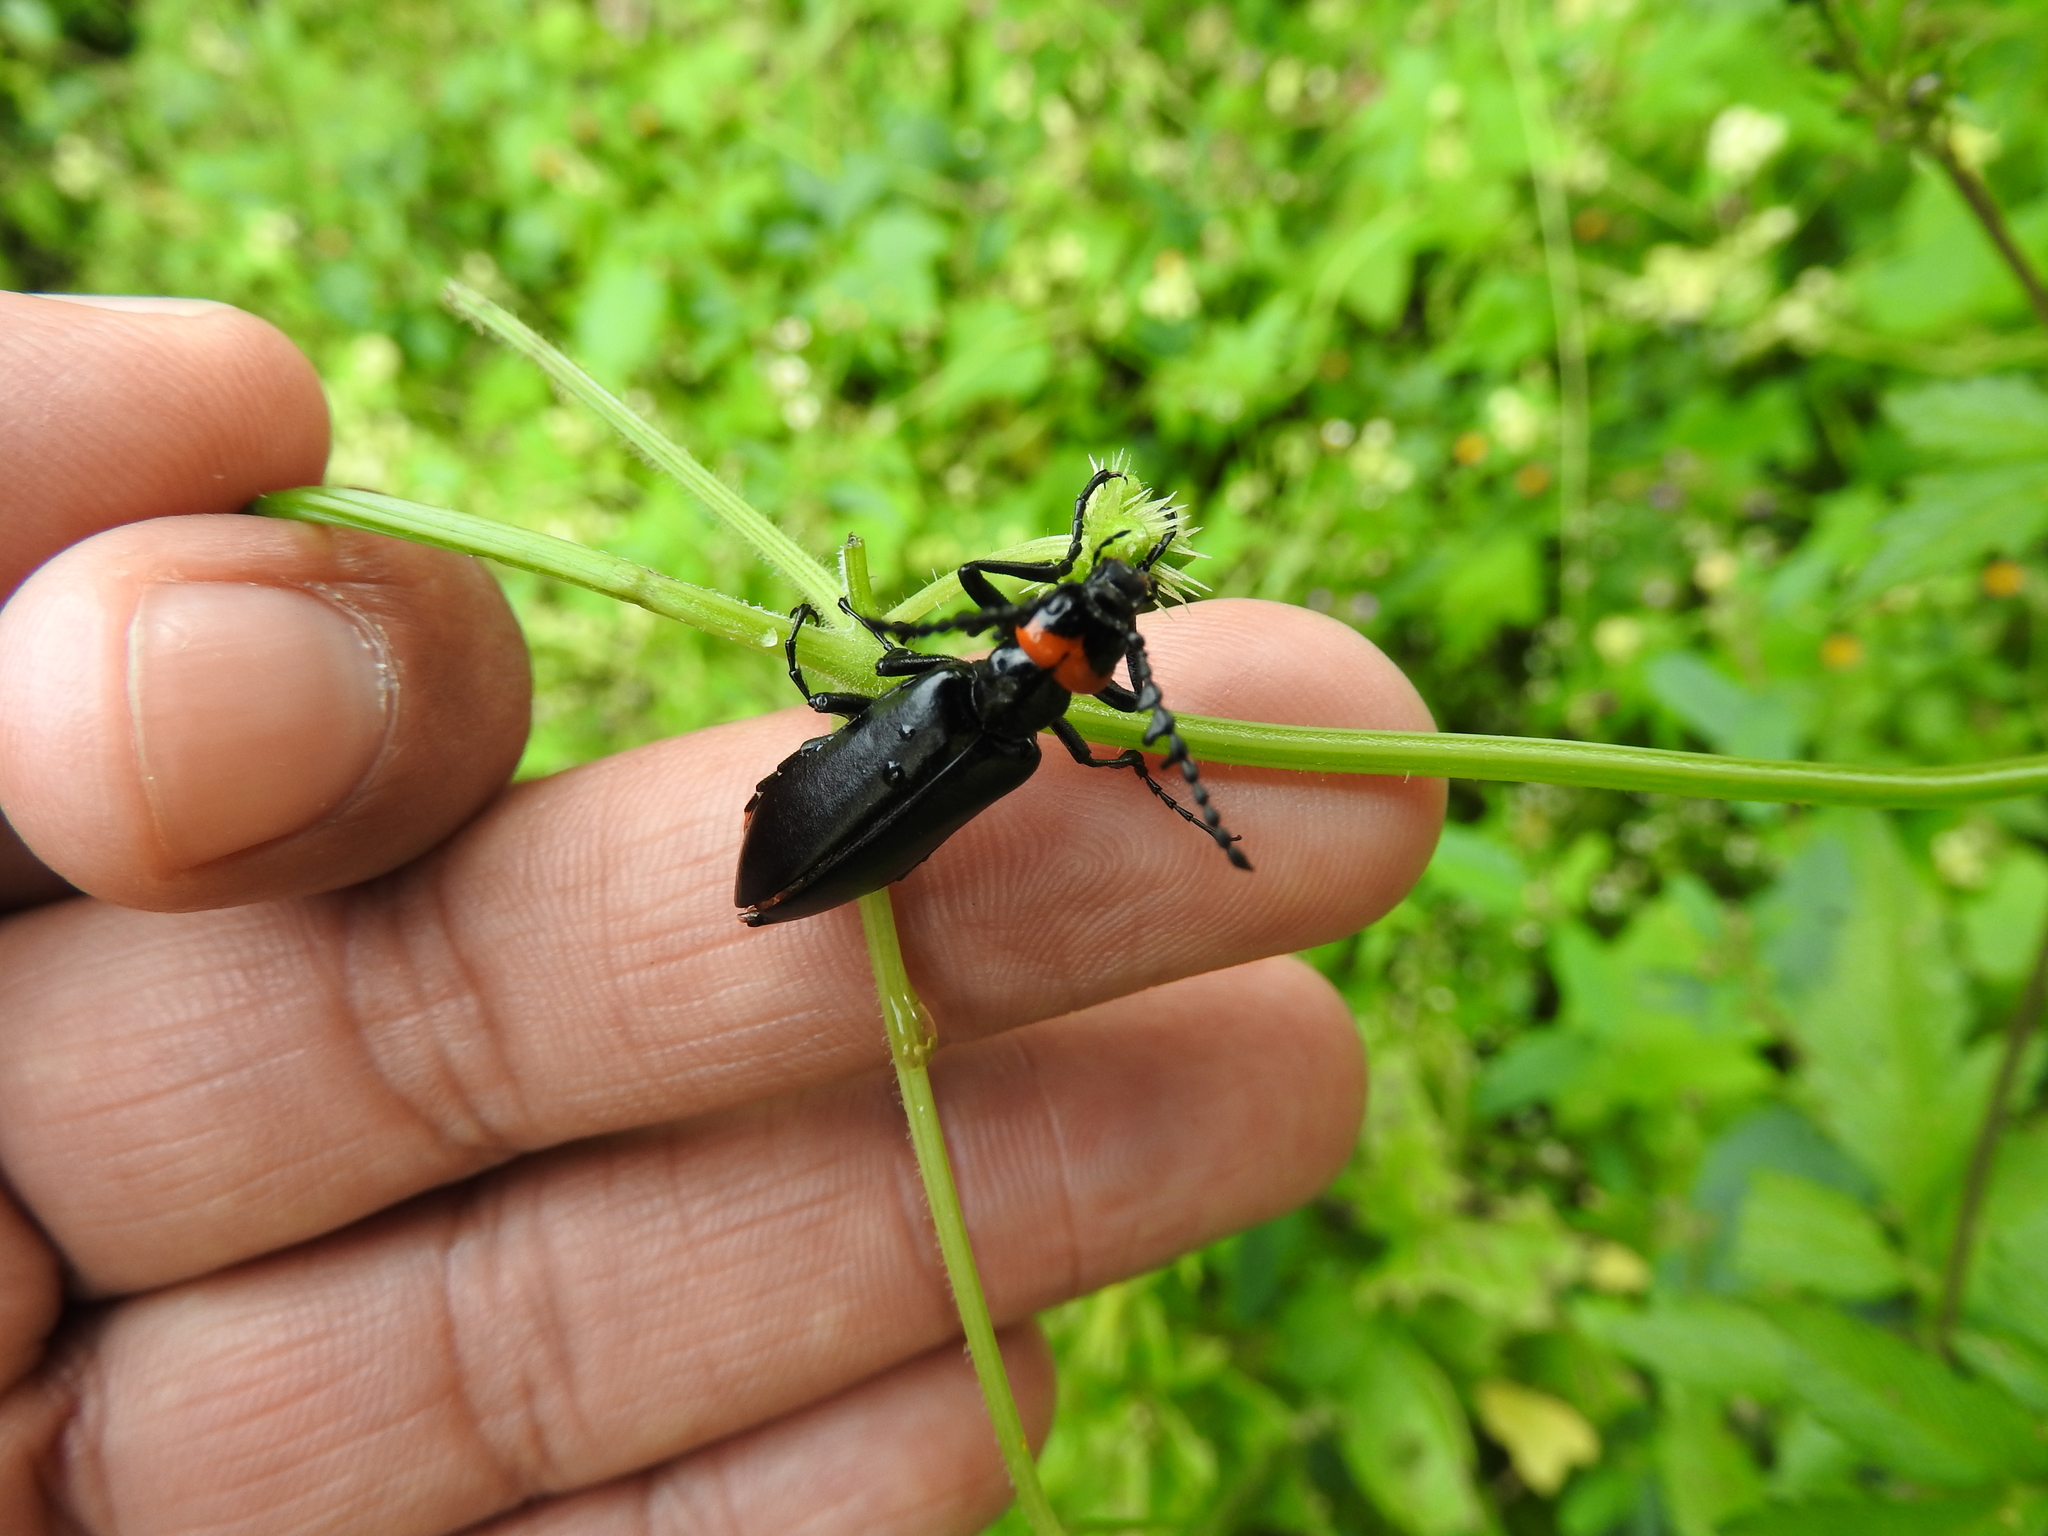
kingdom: Animalia
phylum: Arthropoda
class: Insecta
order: Coleoptera
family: Meloidae
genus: Lytta
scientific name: Lytta eucera
